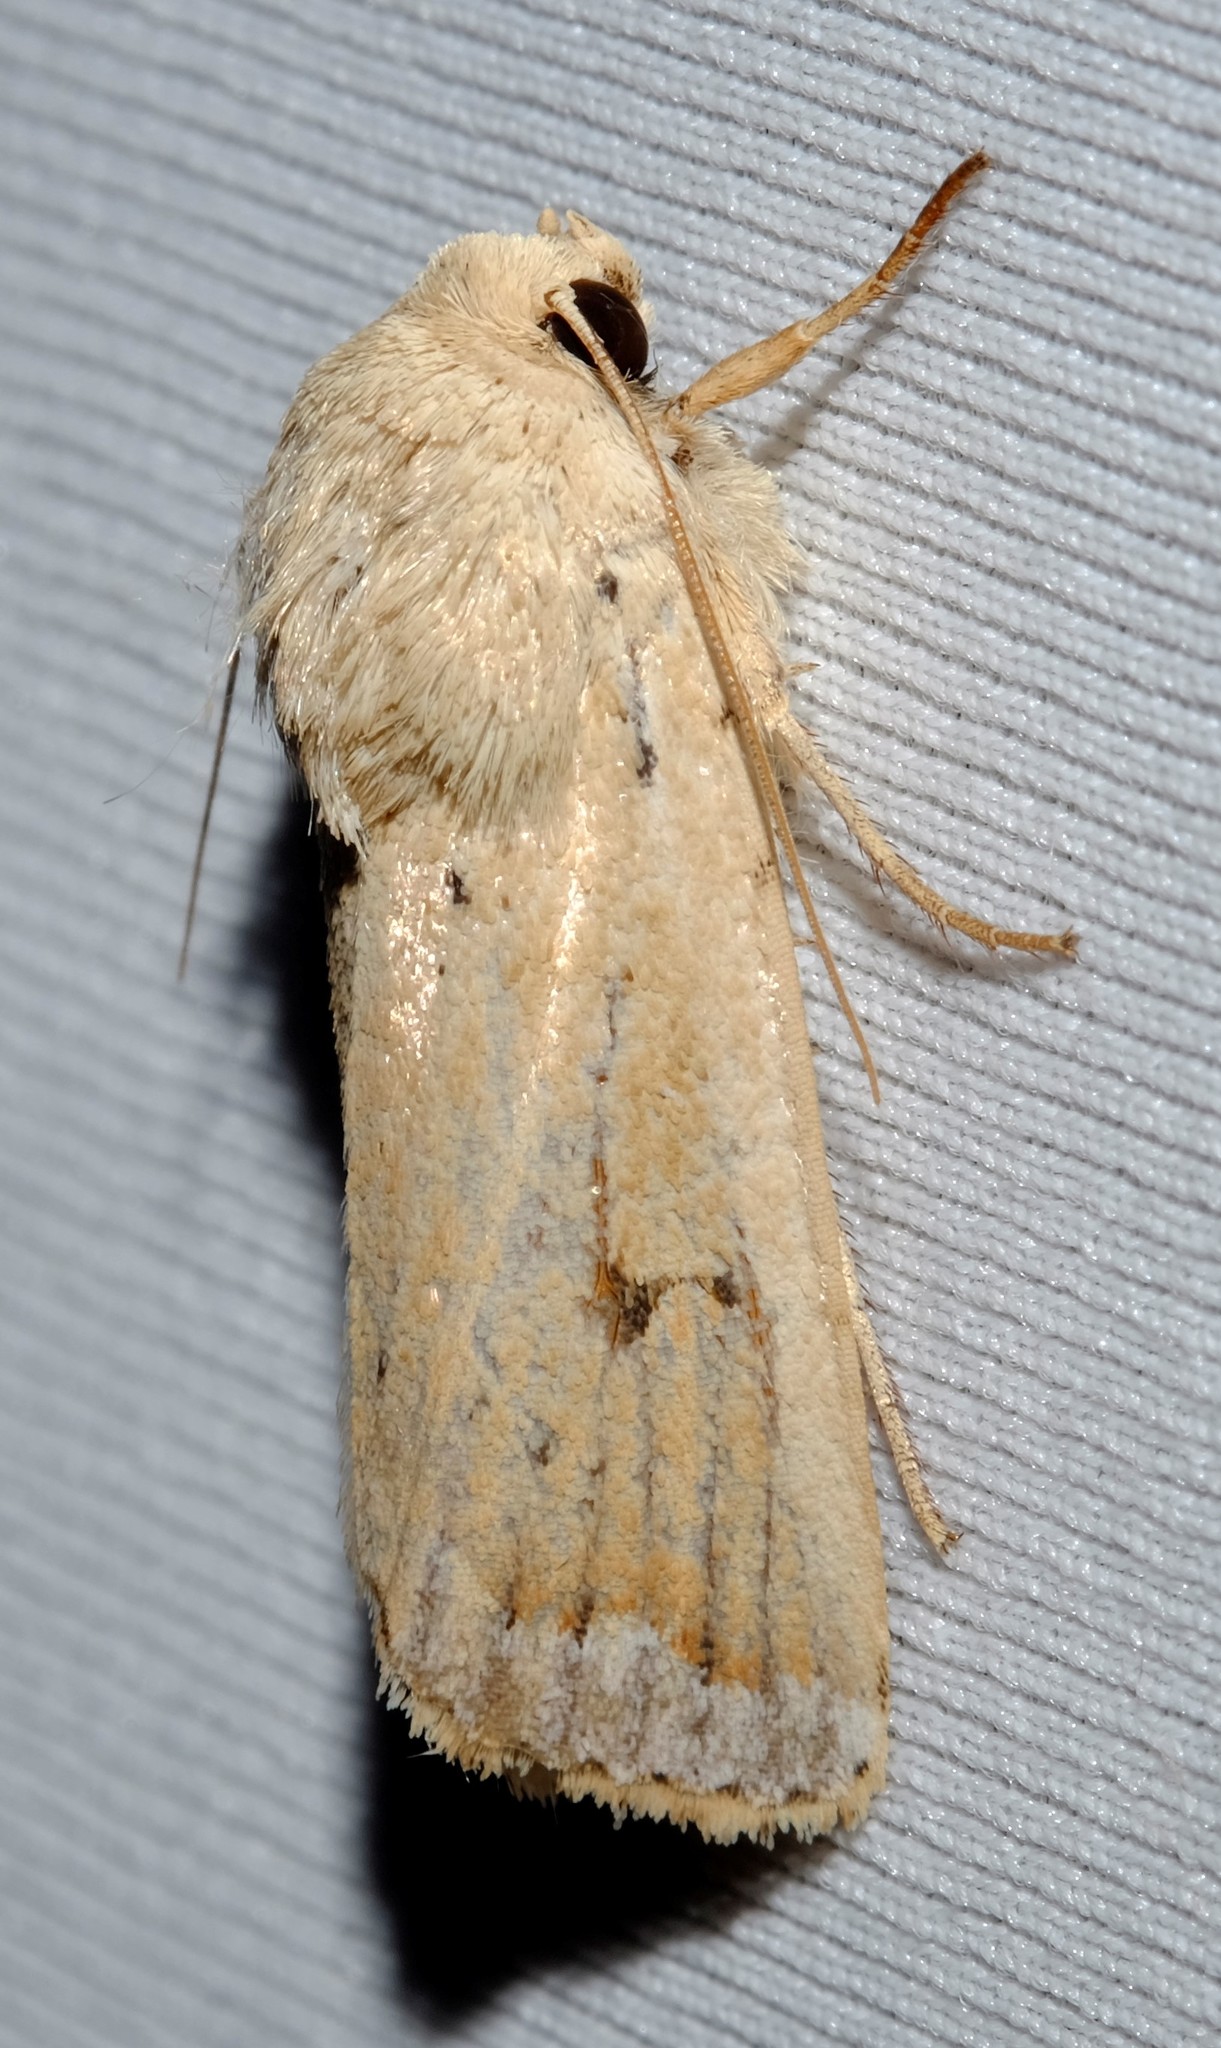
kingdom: Animalia
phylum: Arthropoda
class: Insecta
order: Lepidoptera
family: Noctuidae
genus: Proteuxoa
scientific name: Proteuxoa cyanoloma
